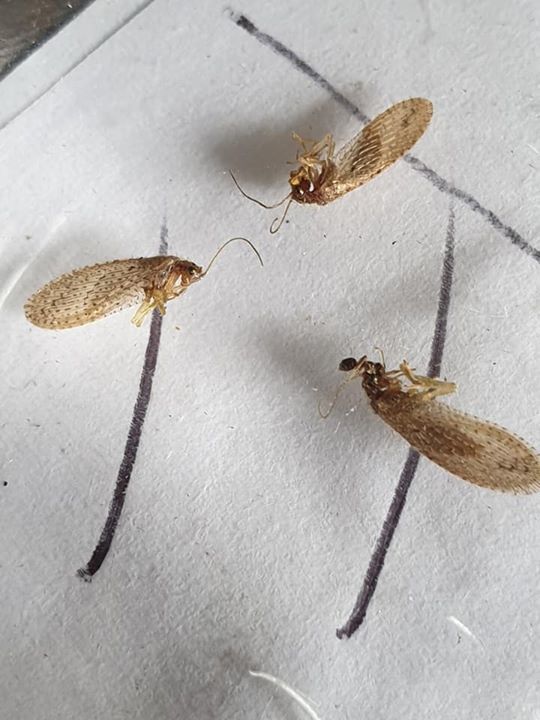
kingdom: Animalia
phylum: Arthropoda
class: Insecta
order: Neuroptera
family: Hemerobiidae
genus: Micromus
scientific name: Micromus tasmaniae
